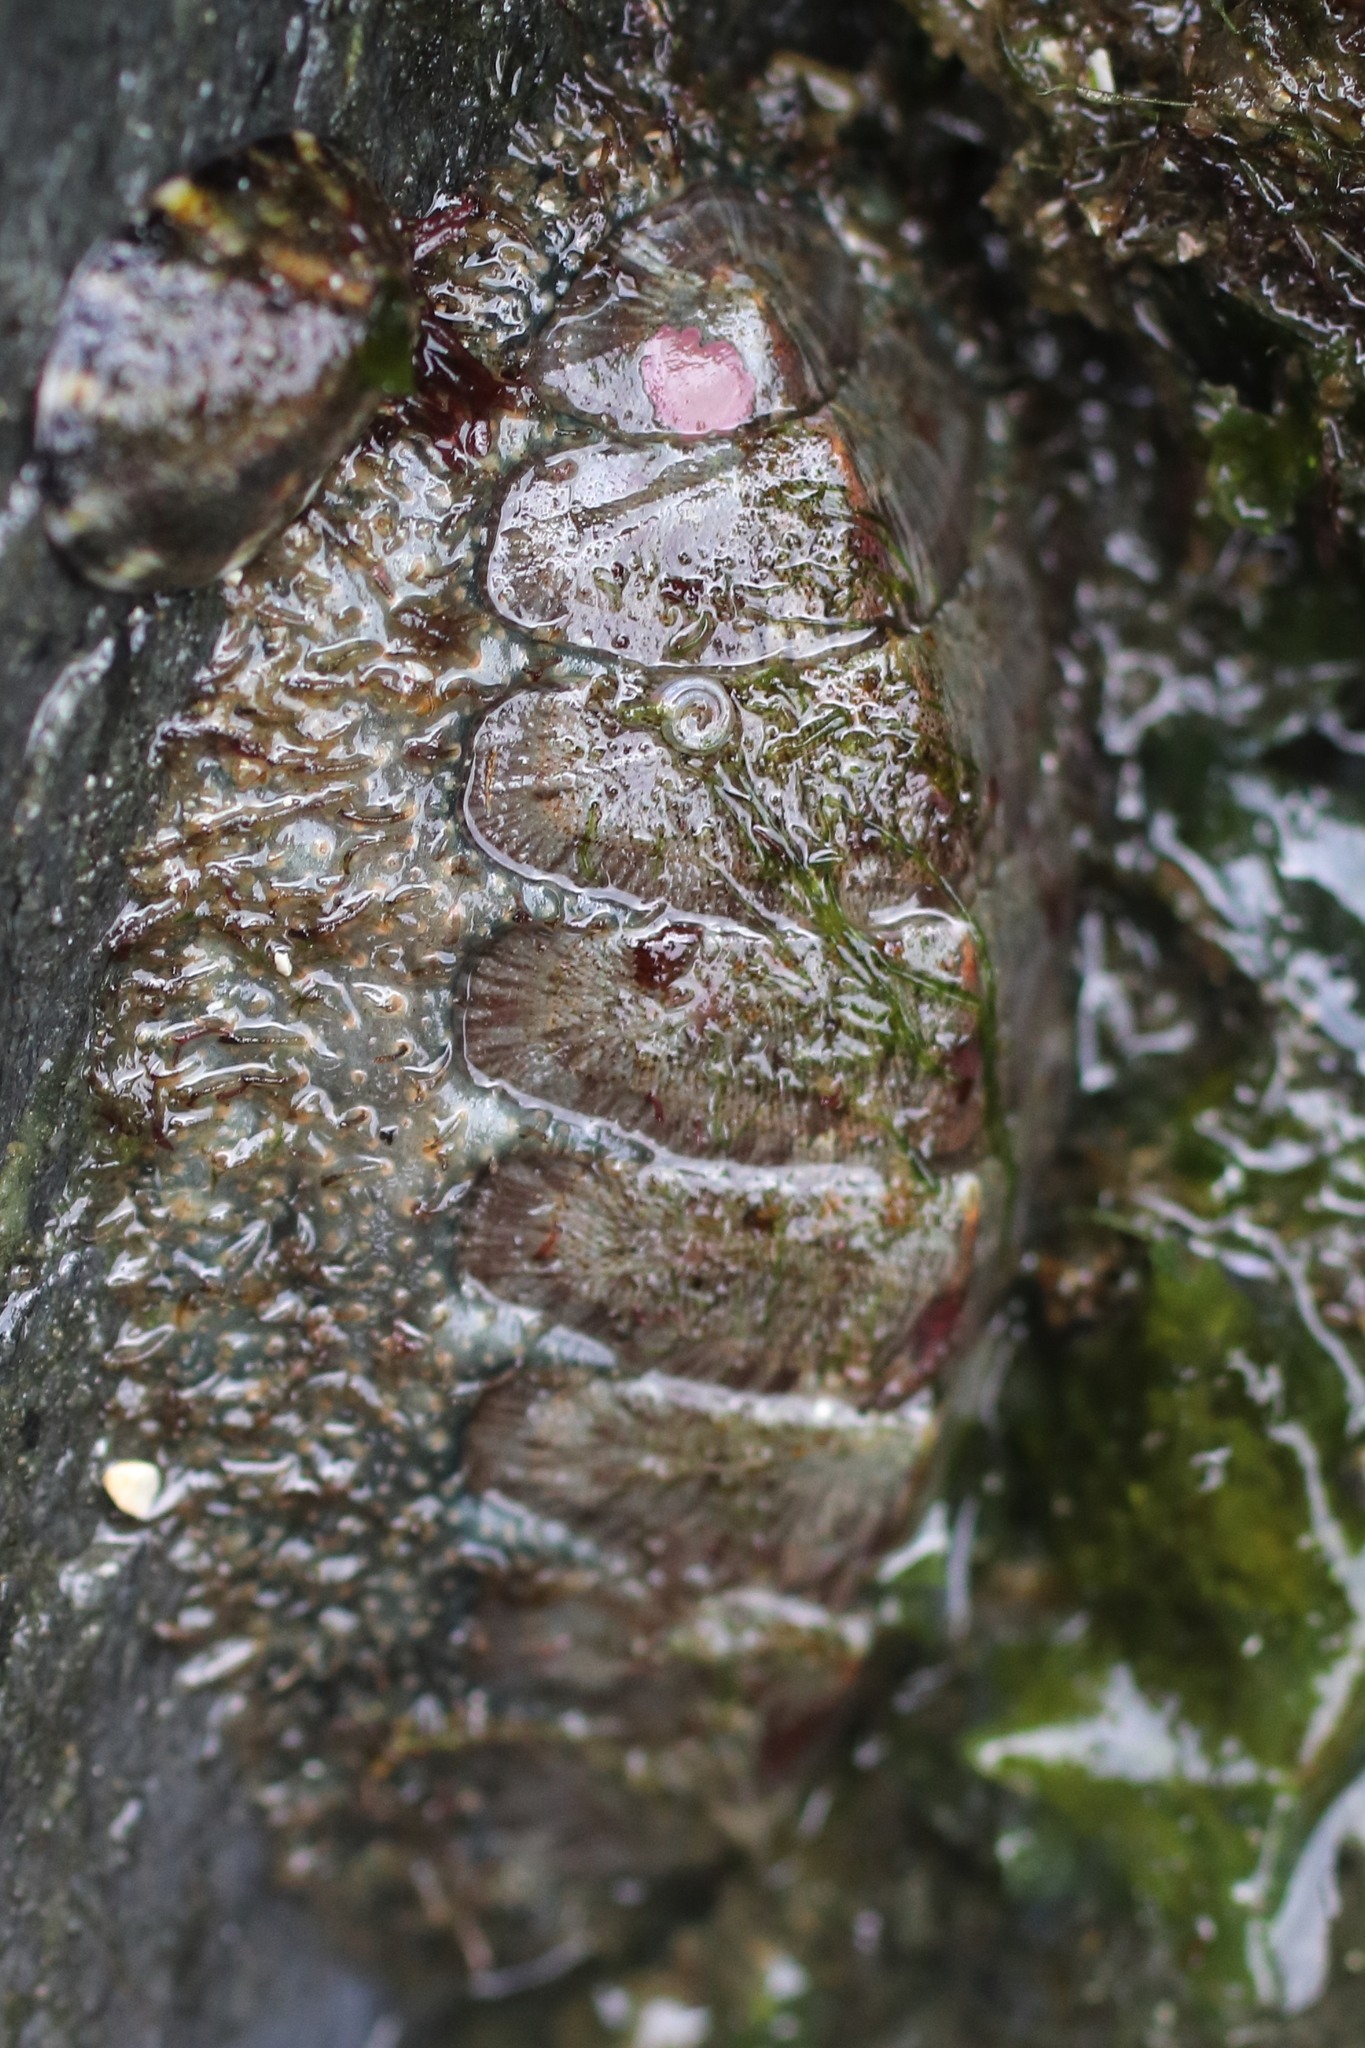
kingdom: Animalia
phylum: Mollusca
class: Polyplacophora
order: Chitonida
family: Mopaliidae
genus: Mopalia
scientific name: Mopalia lignosa
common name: Woody chiton
